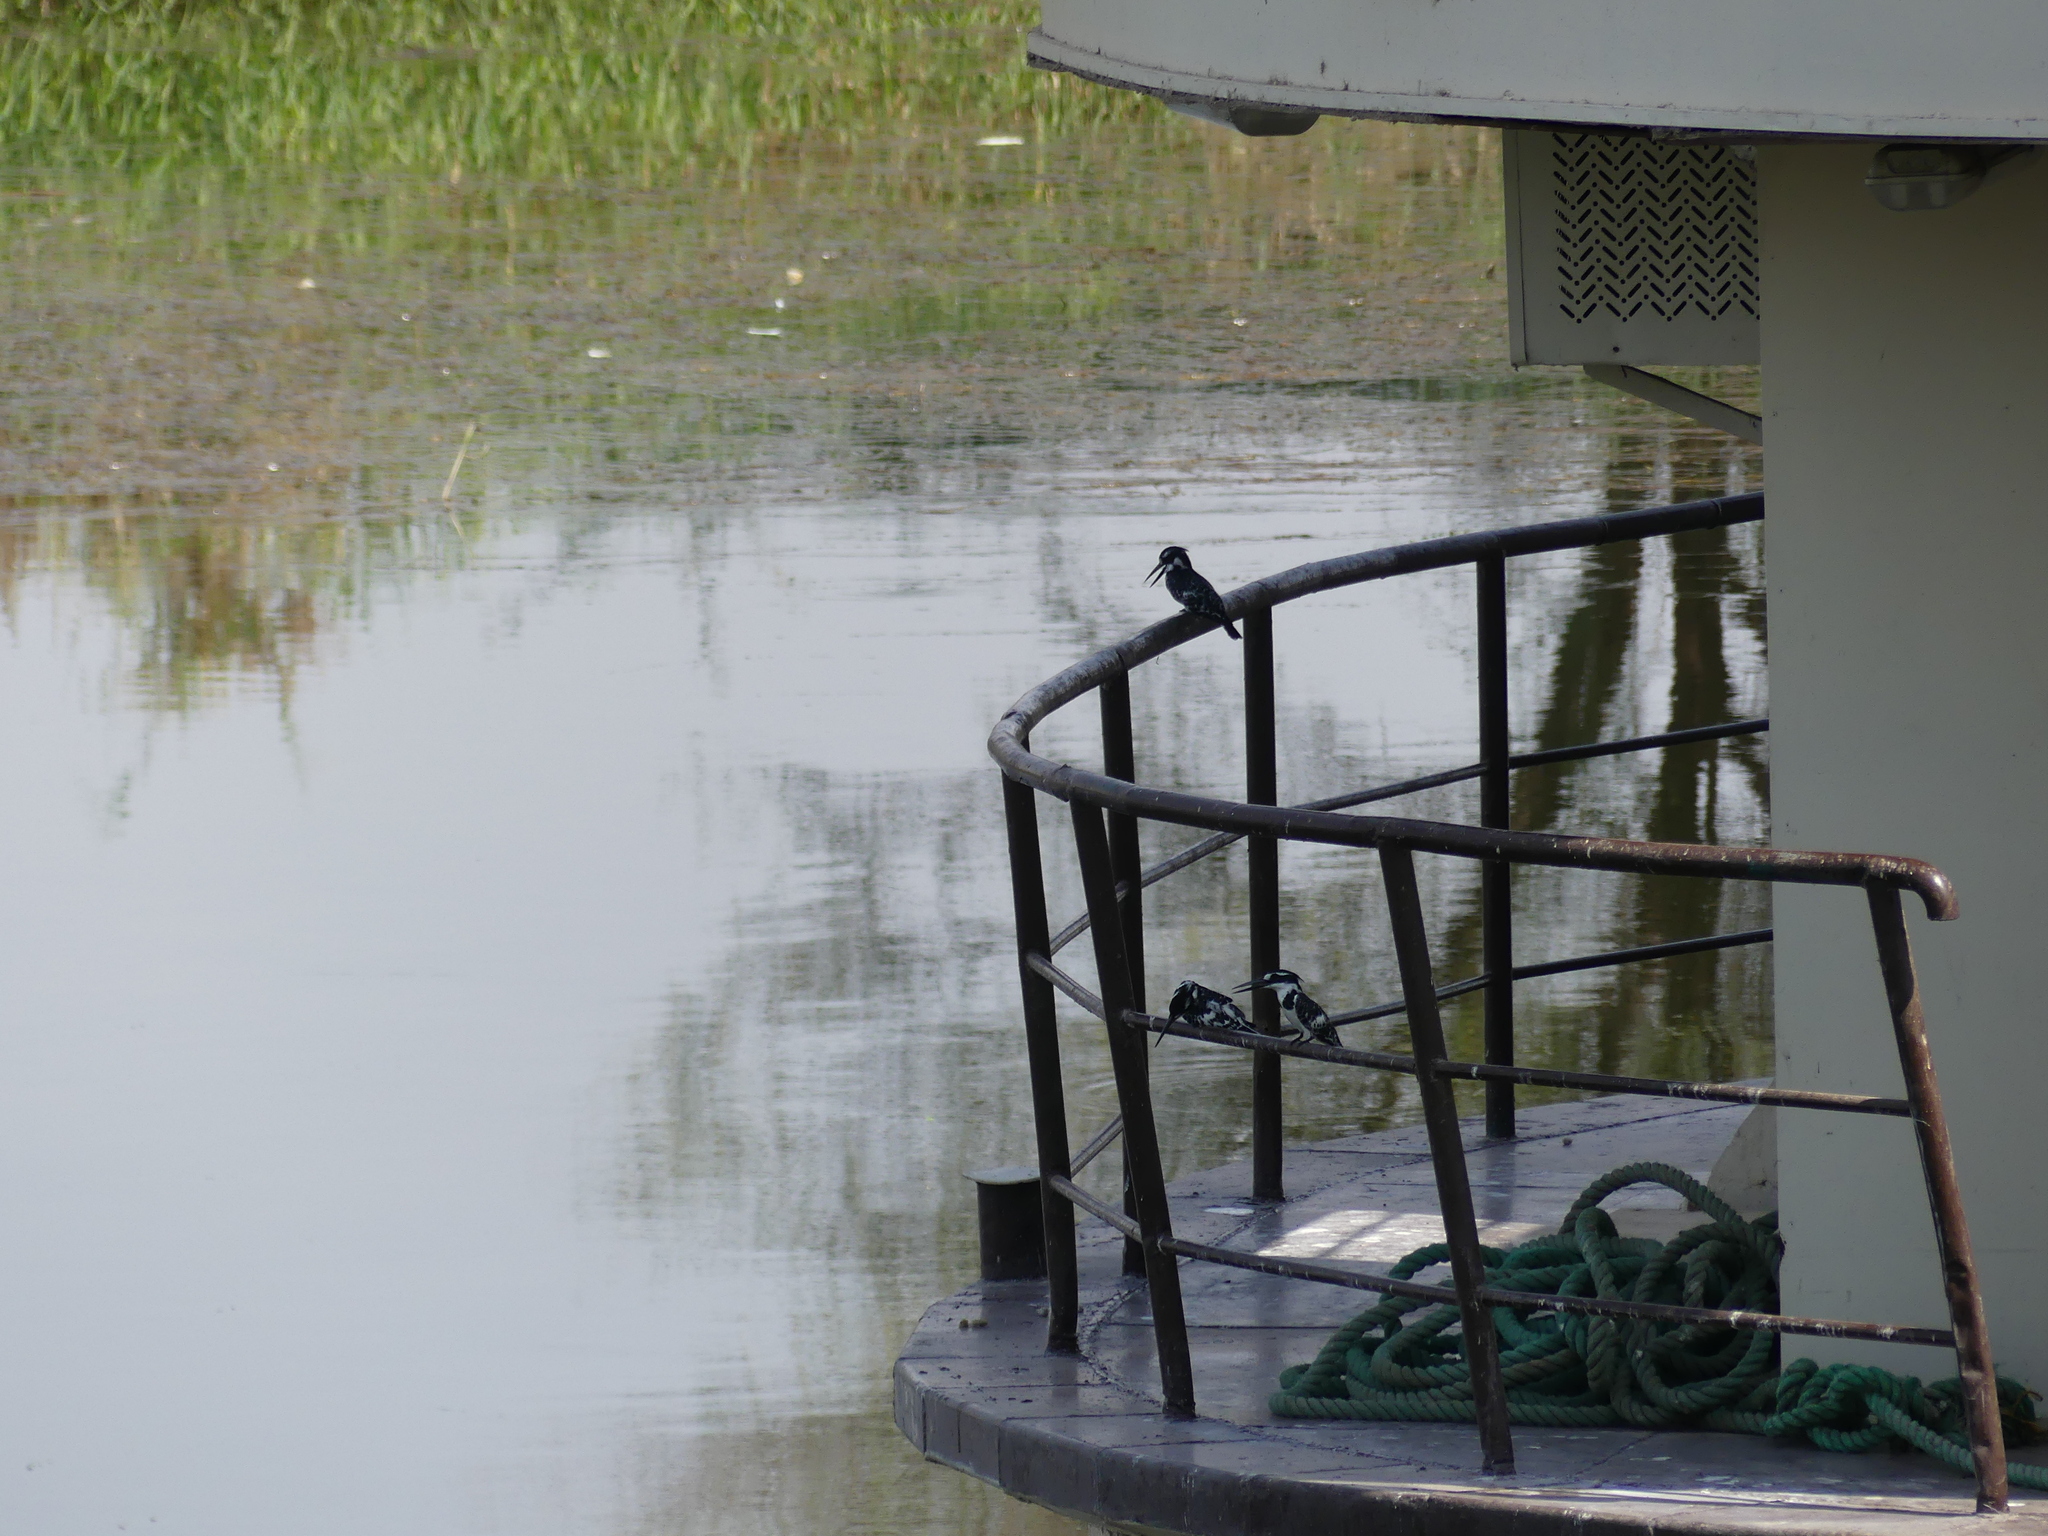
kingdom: Animalia
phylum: Chordata
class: Aves
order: Coraciiformes
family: Alcedinidae
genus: Ceryle
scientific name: Ceryle rudis
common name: Pied kingfisher
